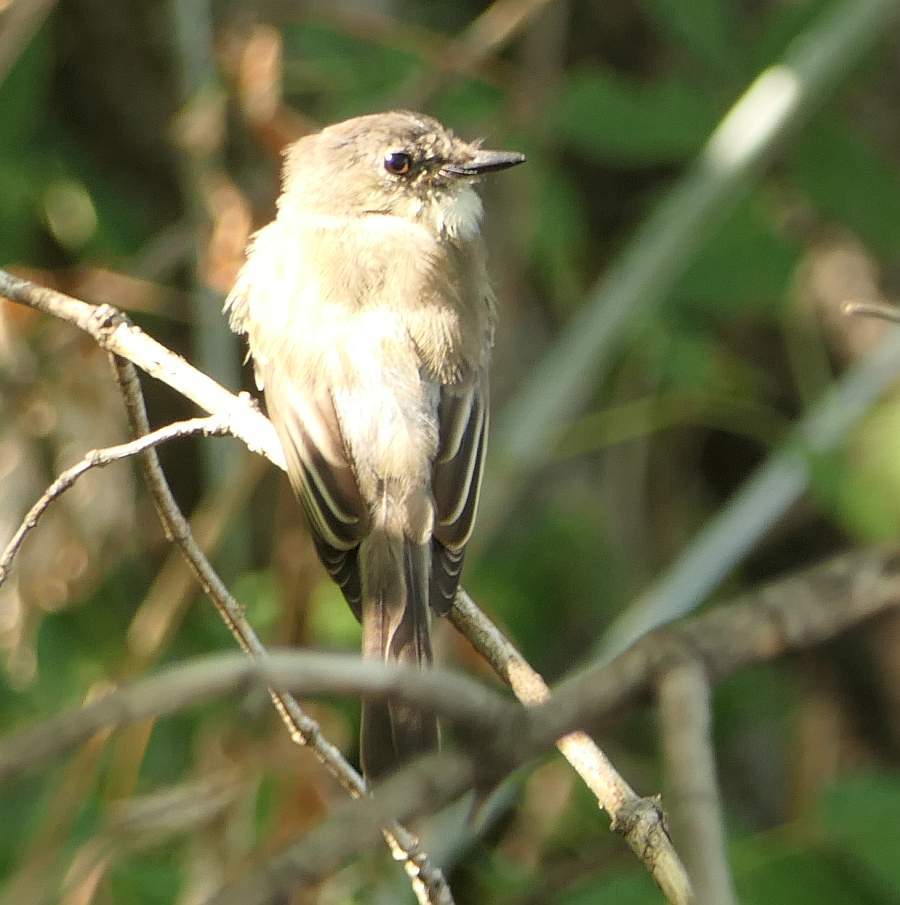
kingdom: Animalia
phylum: Chordata
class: Aves
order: Passeriformes
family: Tyrannidae
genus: Sayornis
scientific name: Sayornis phoebe
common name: Eastern phoebe
